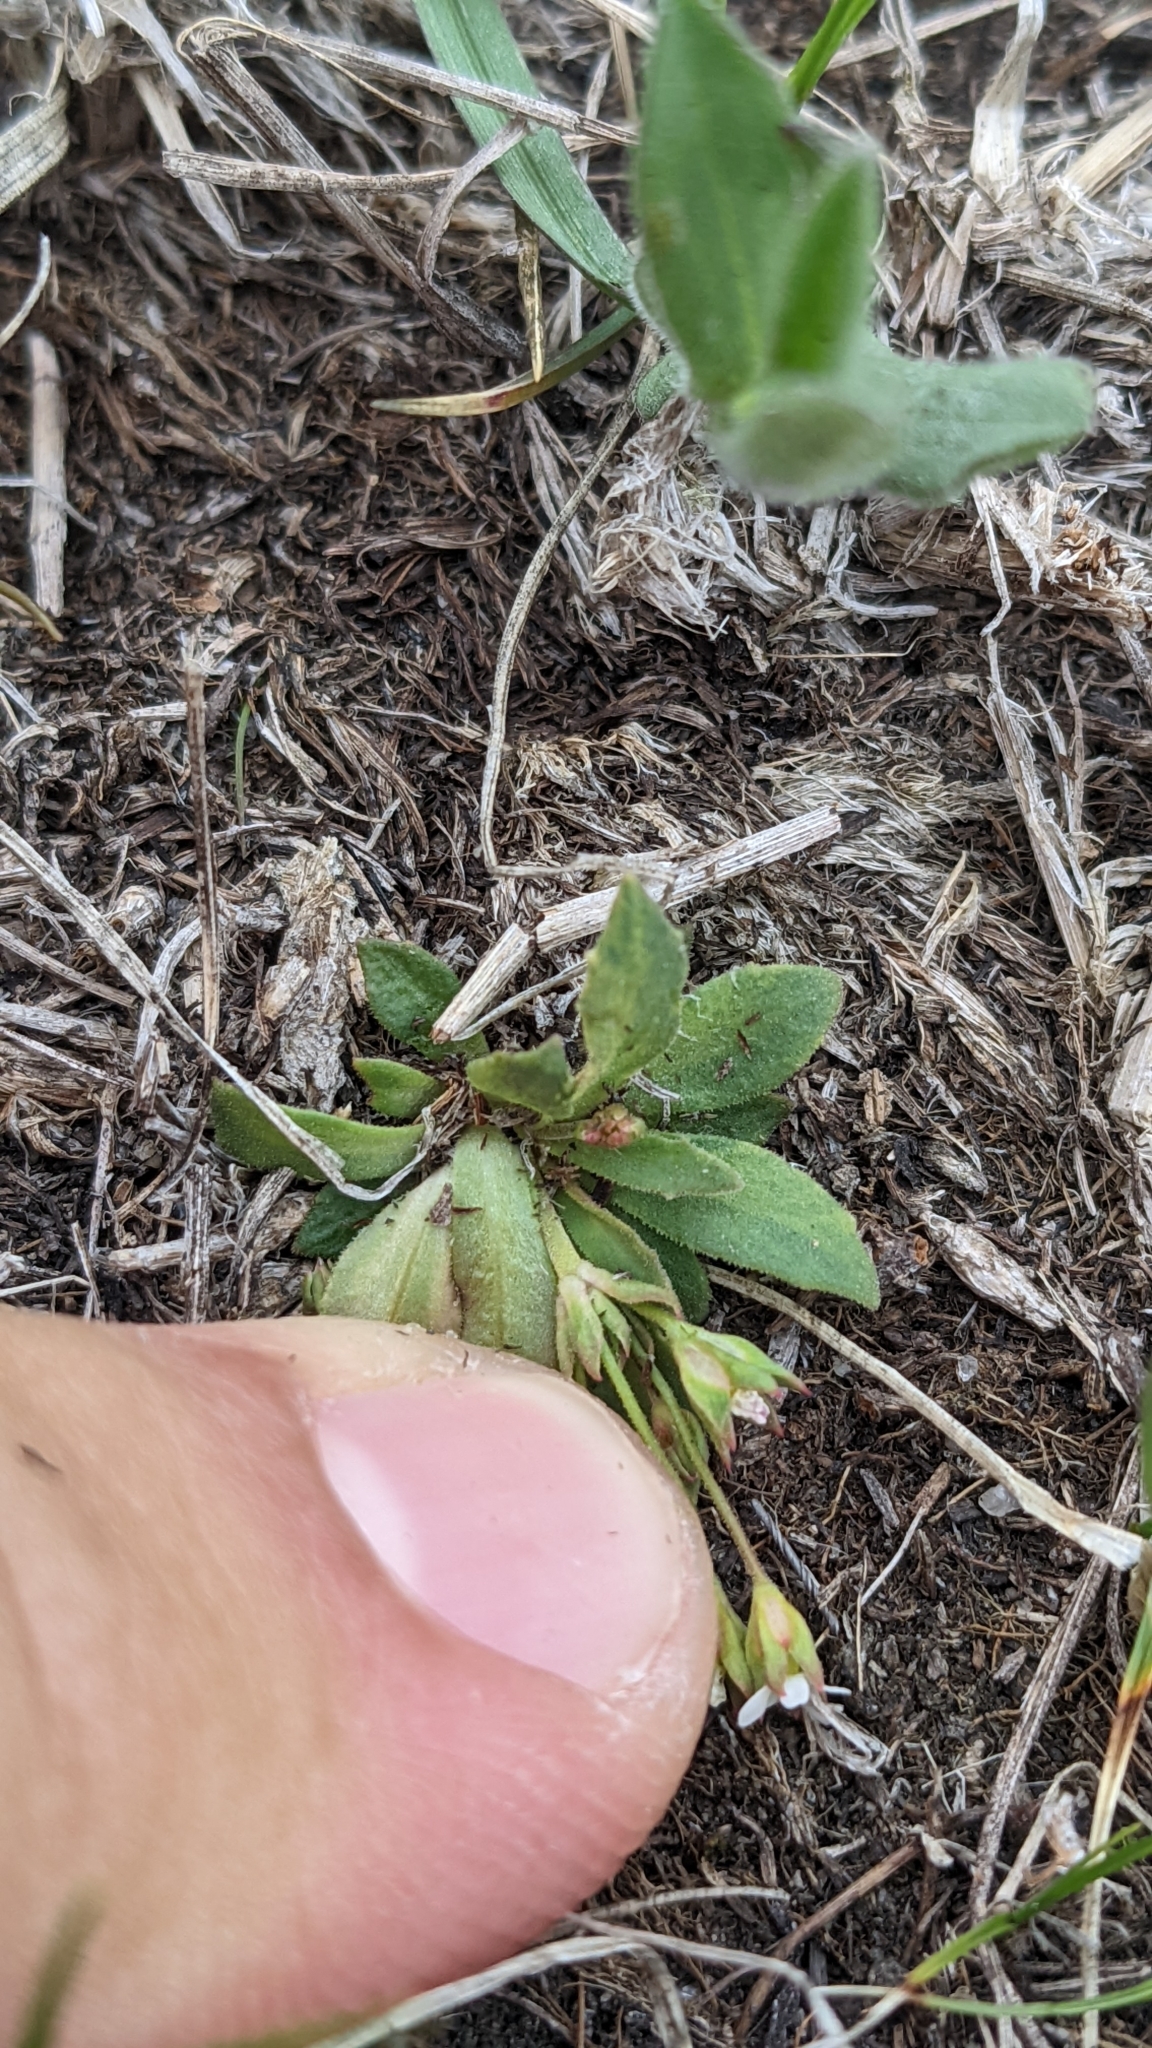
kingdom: Plantae
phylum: Tracheophyta
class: Magnoliopsida
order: Ericales
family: Primulaceae
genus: Androsace
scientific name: Androsace septentrionalis
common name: Hairy northern fairy-candelabra
